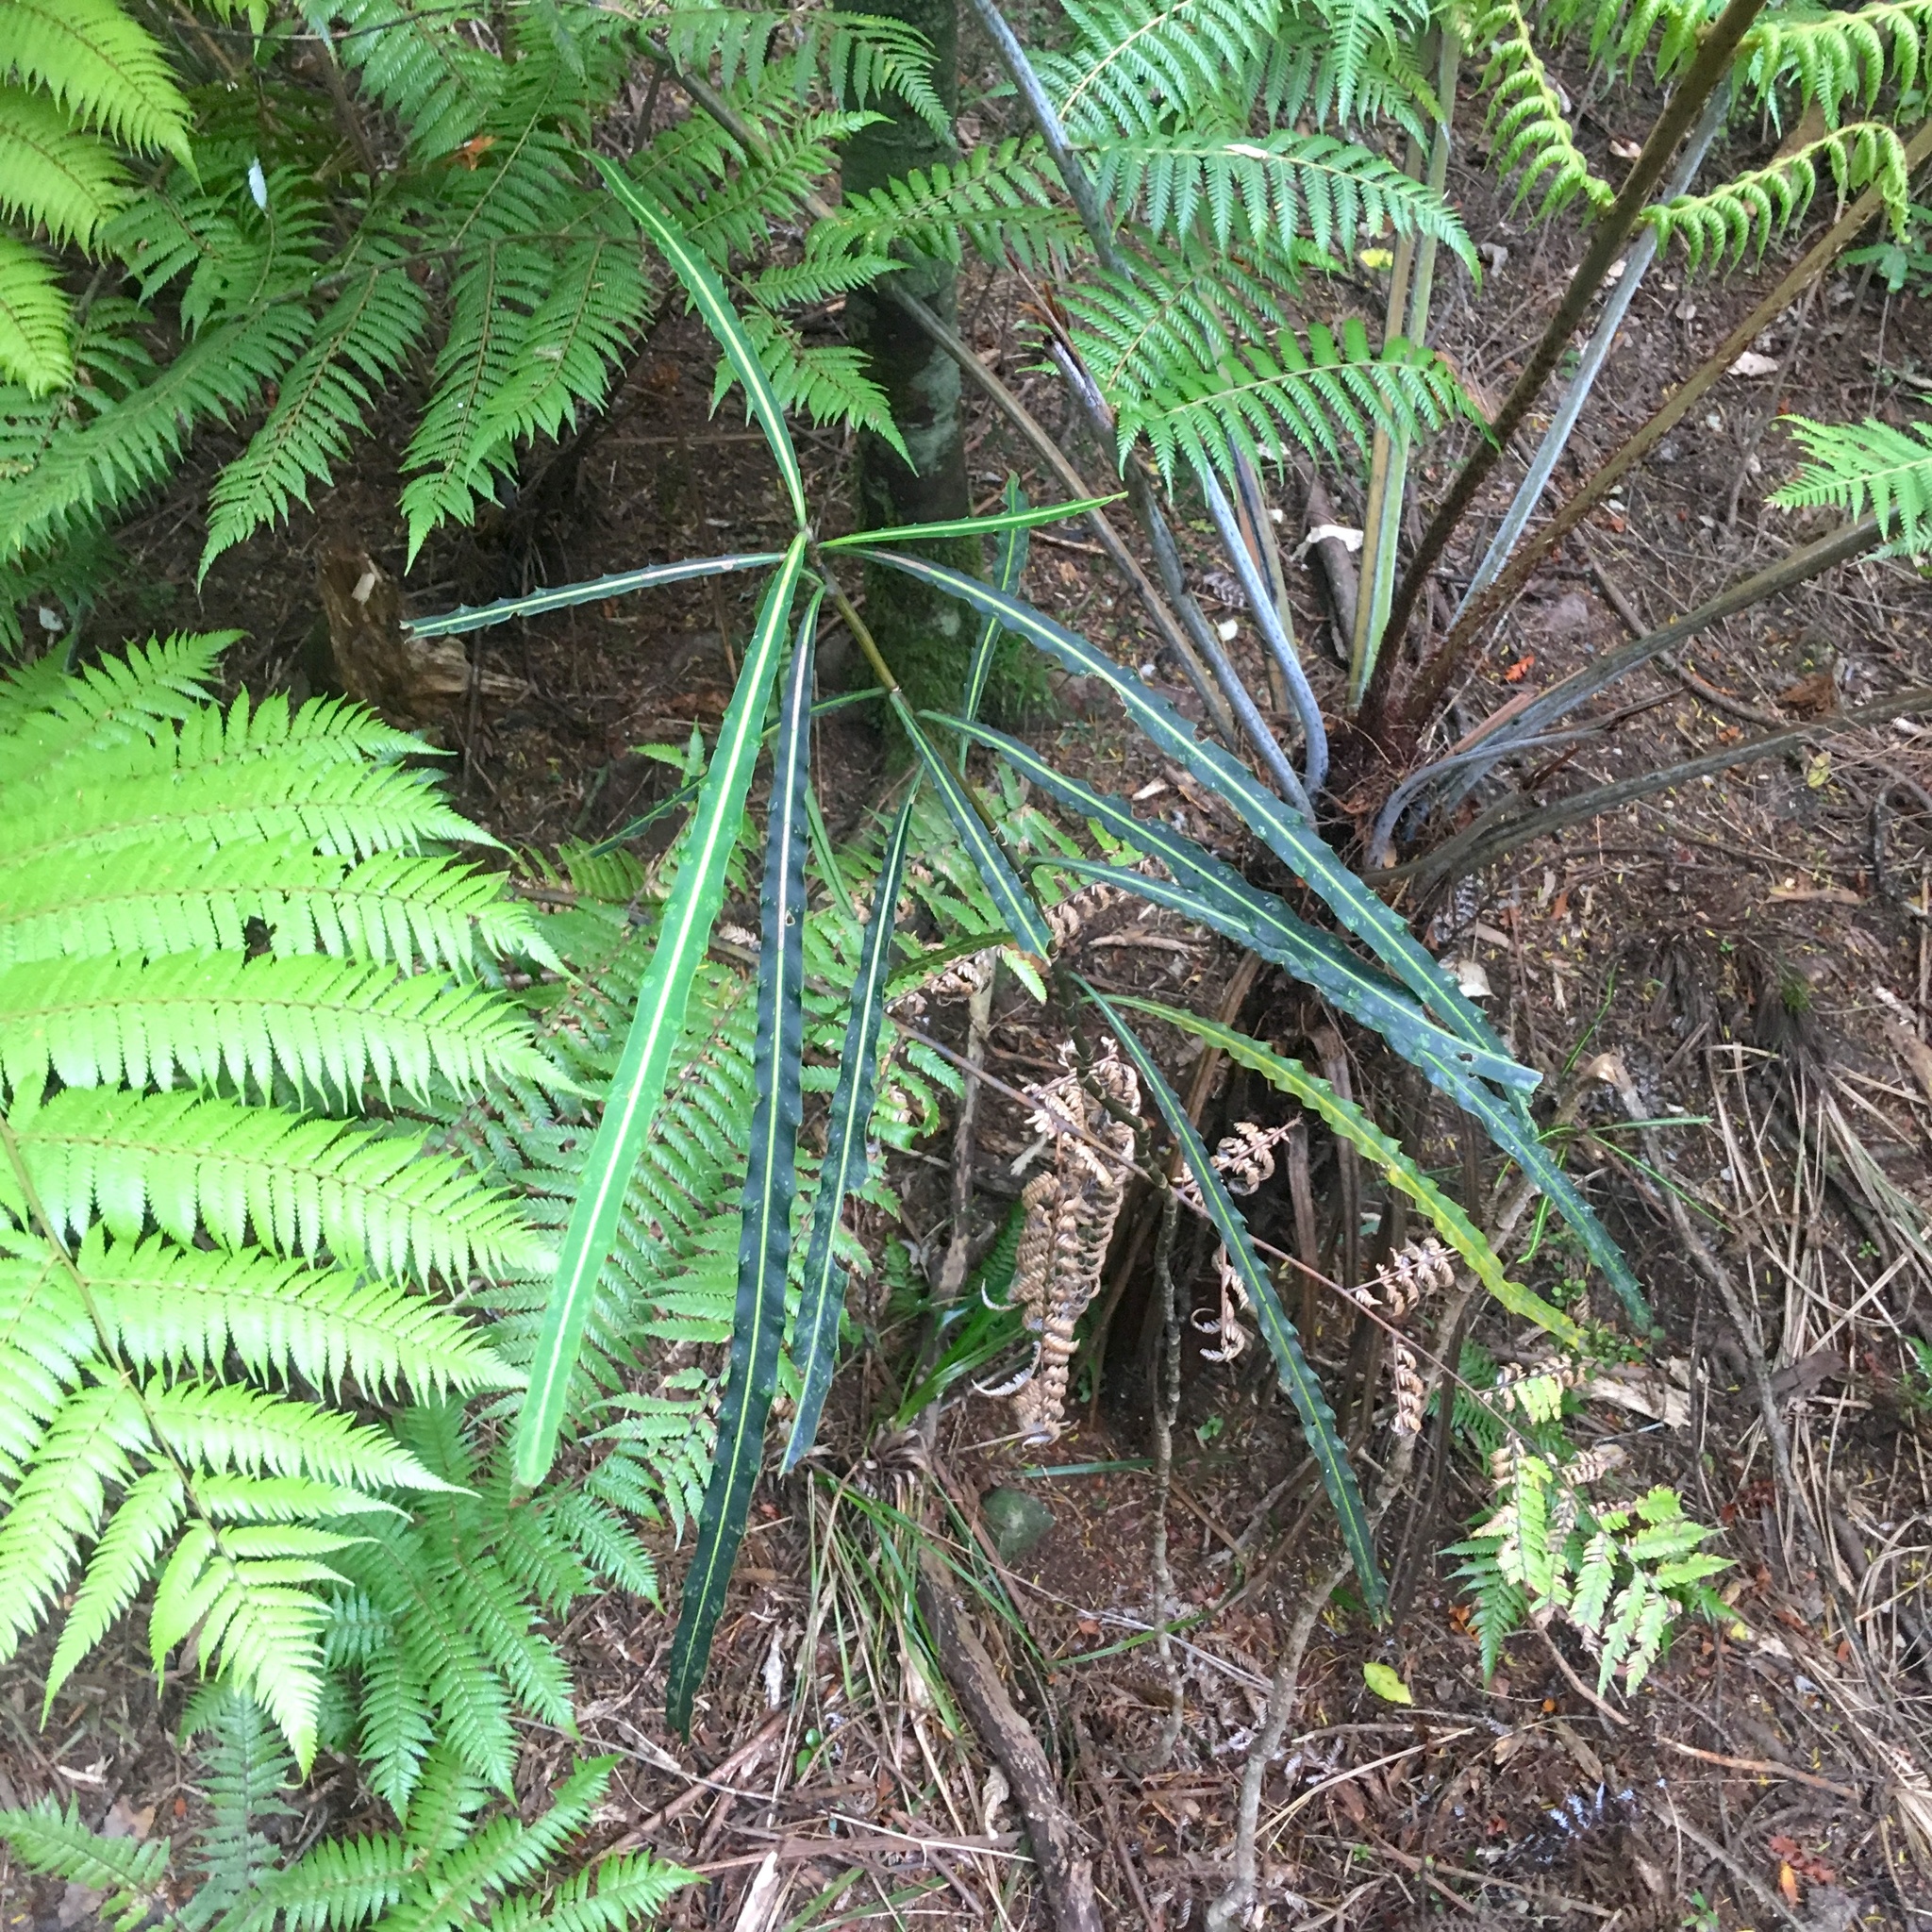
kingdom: Plantae
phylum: Tracheophyta
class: Magnoliopsida
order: Apiales
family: Araliaceae
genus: Pseudopanax
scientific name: Pseudopanax crassifolius
